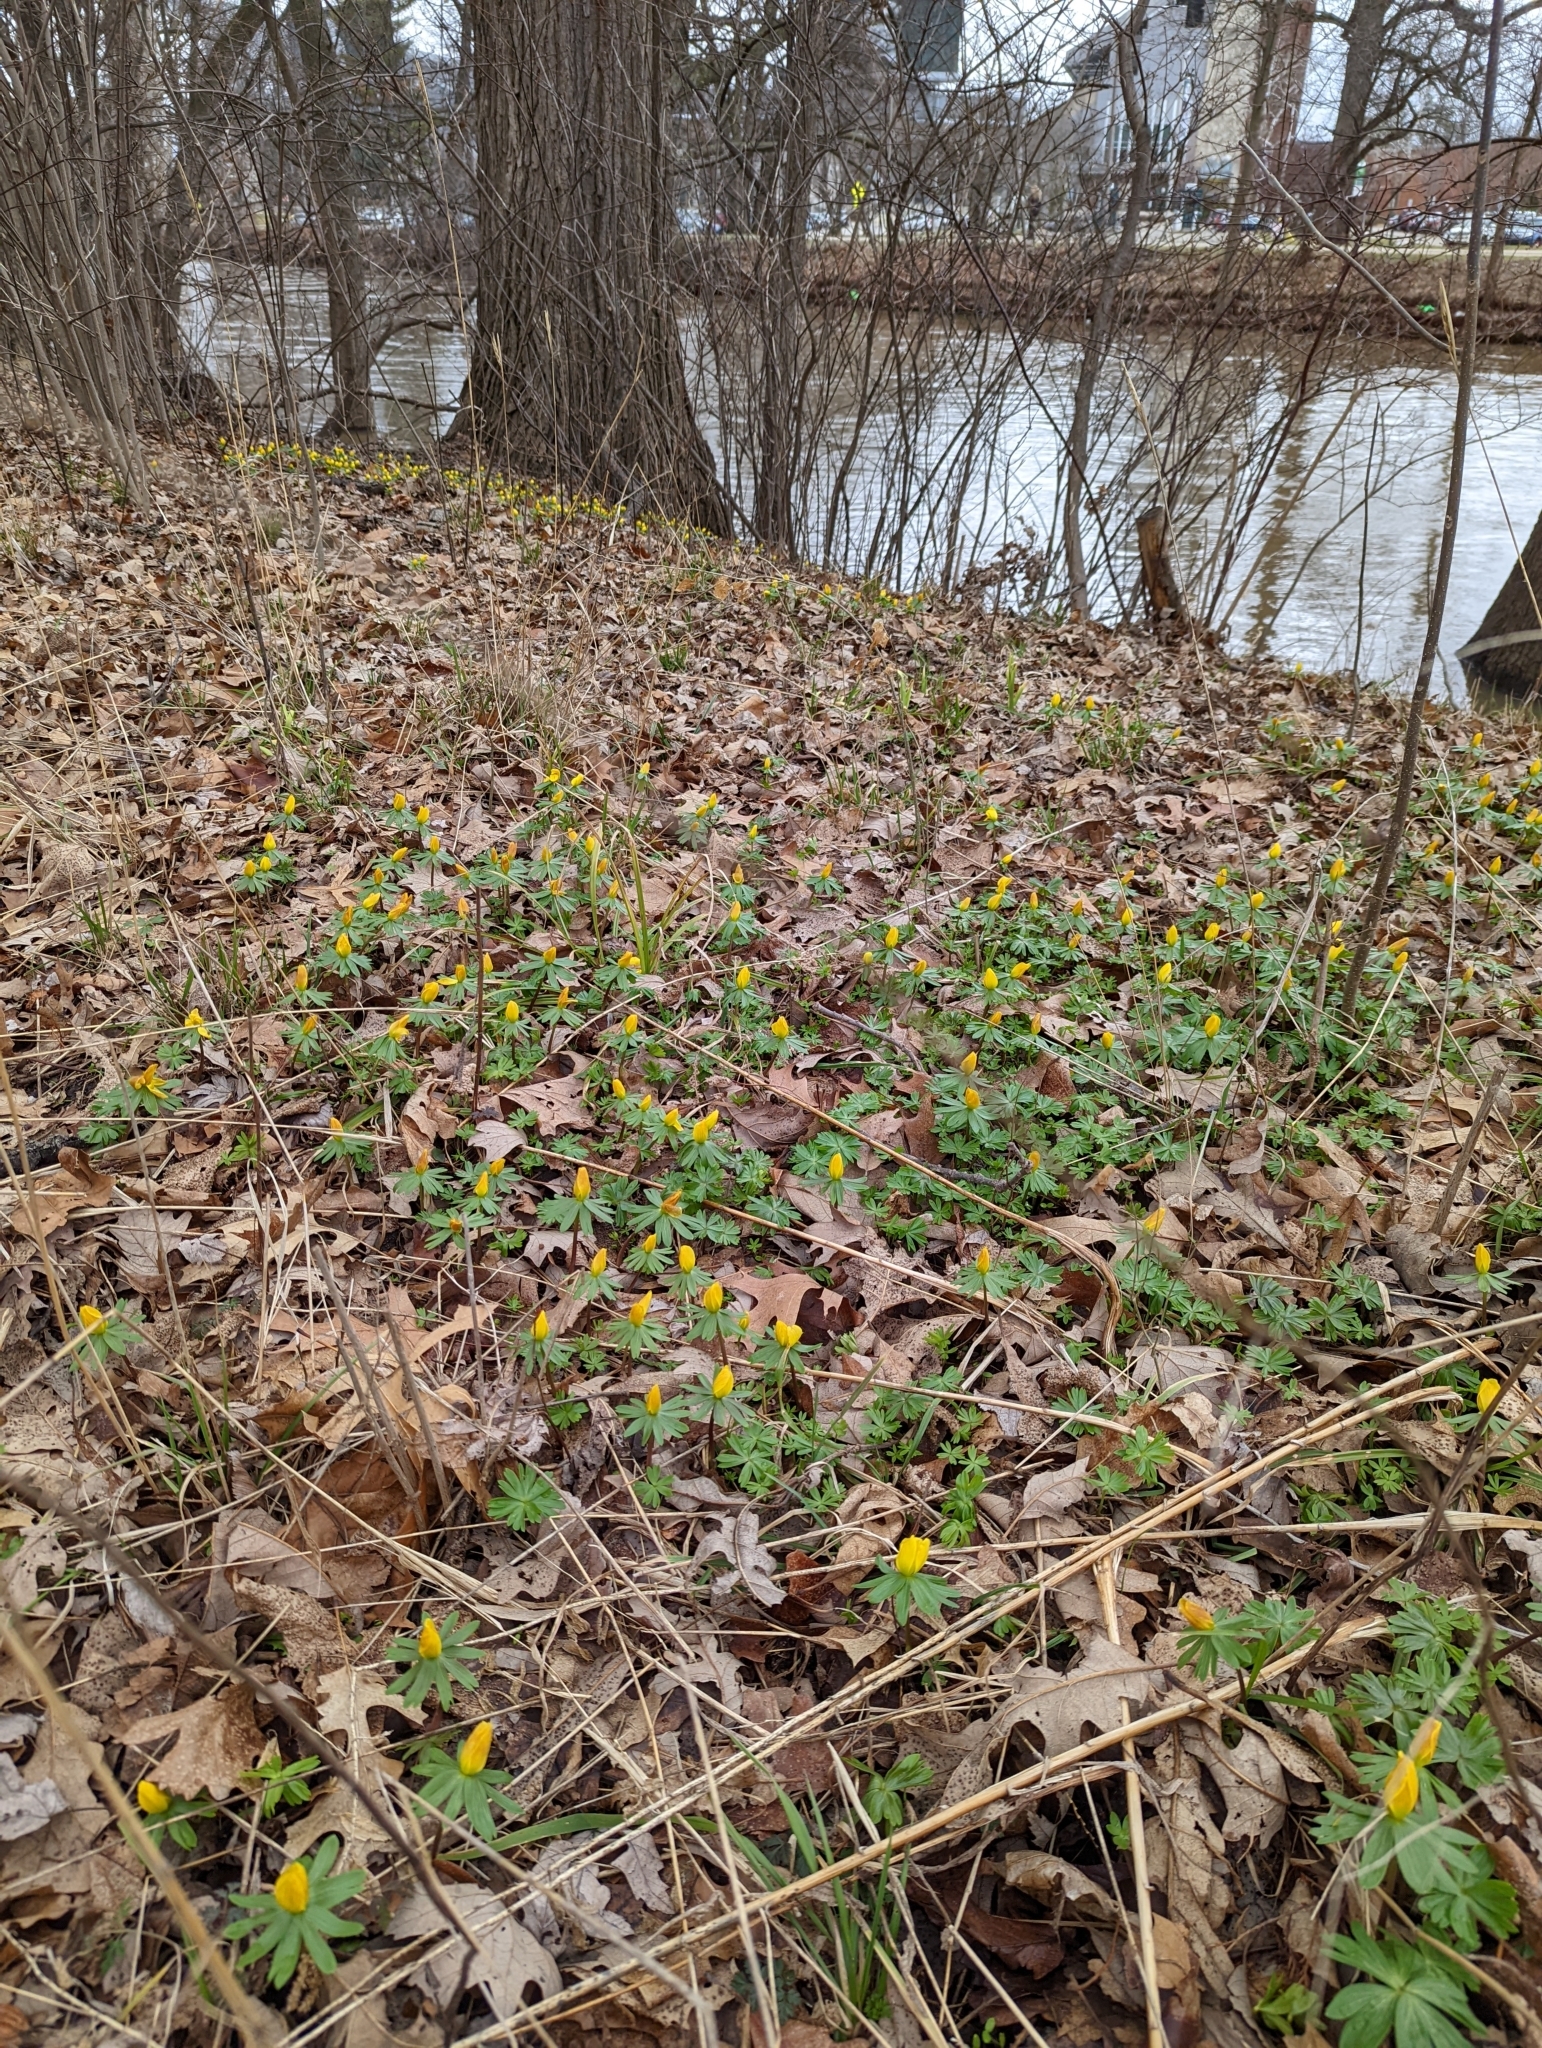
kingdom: Plantae
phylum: Tracheophyta
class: Magnoliopsida
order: Ranunculales
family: Ranunculaceae
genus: Eranthis
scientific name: Eranthis hyemalis
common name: Winter aconite
